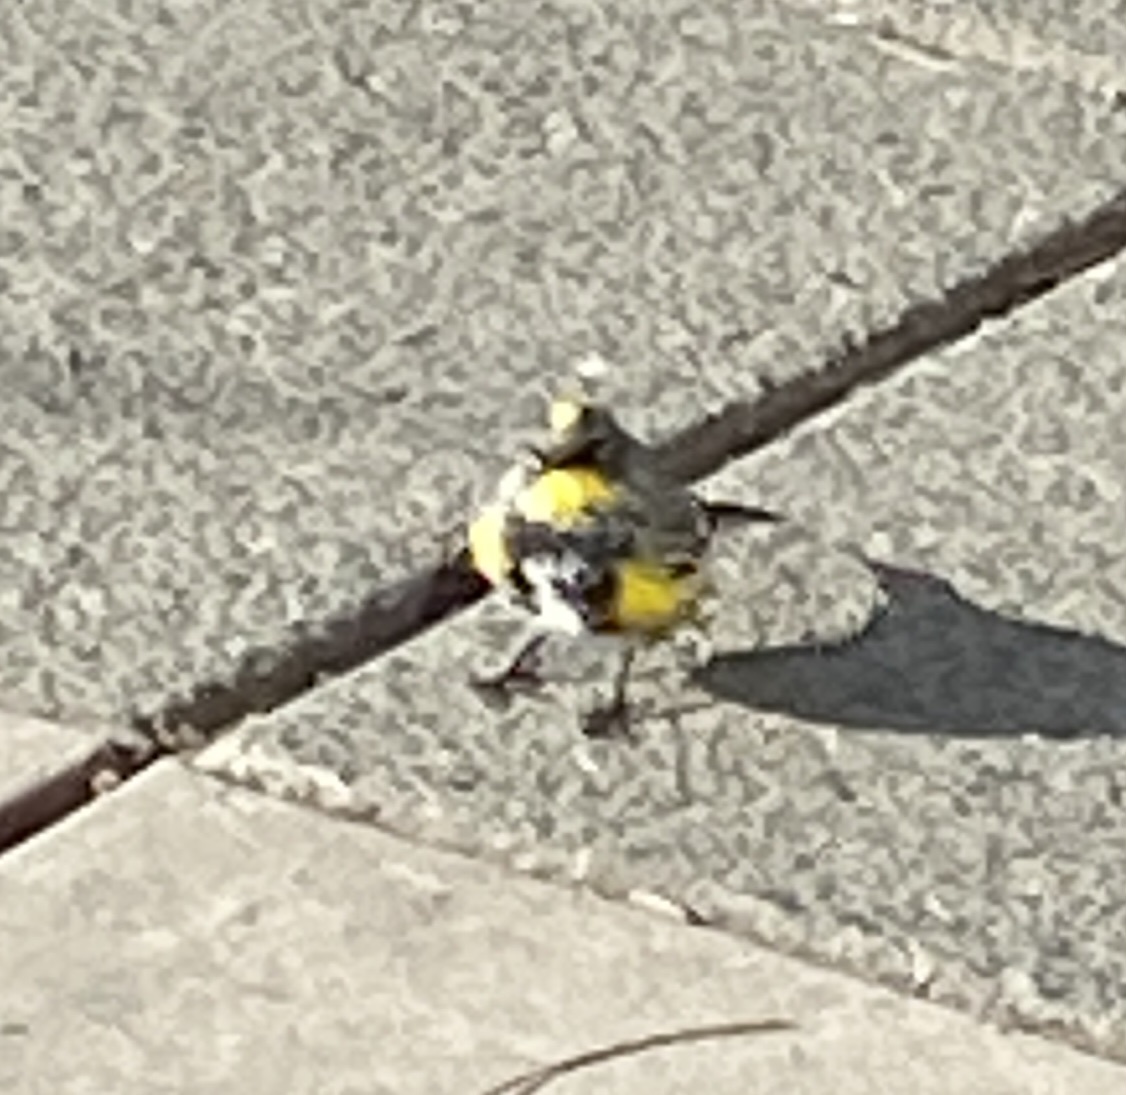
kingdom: Animalia
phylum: Chordata
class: Aves
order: Passeriformes
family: Parulidae
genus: Setophaga
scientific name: Setophaga coronata
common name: Myrtle warbler
